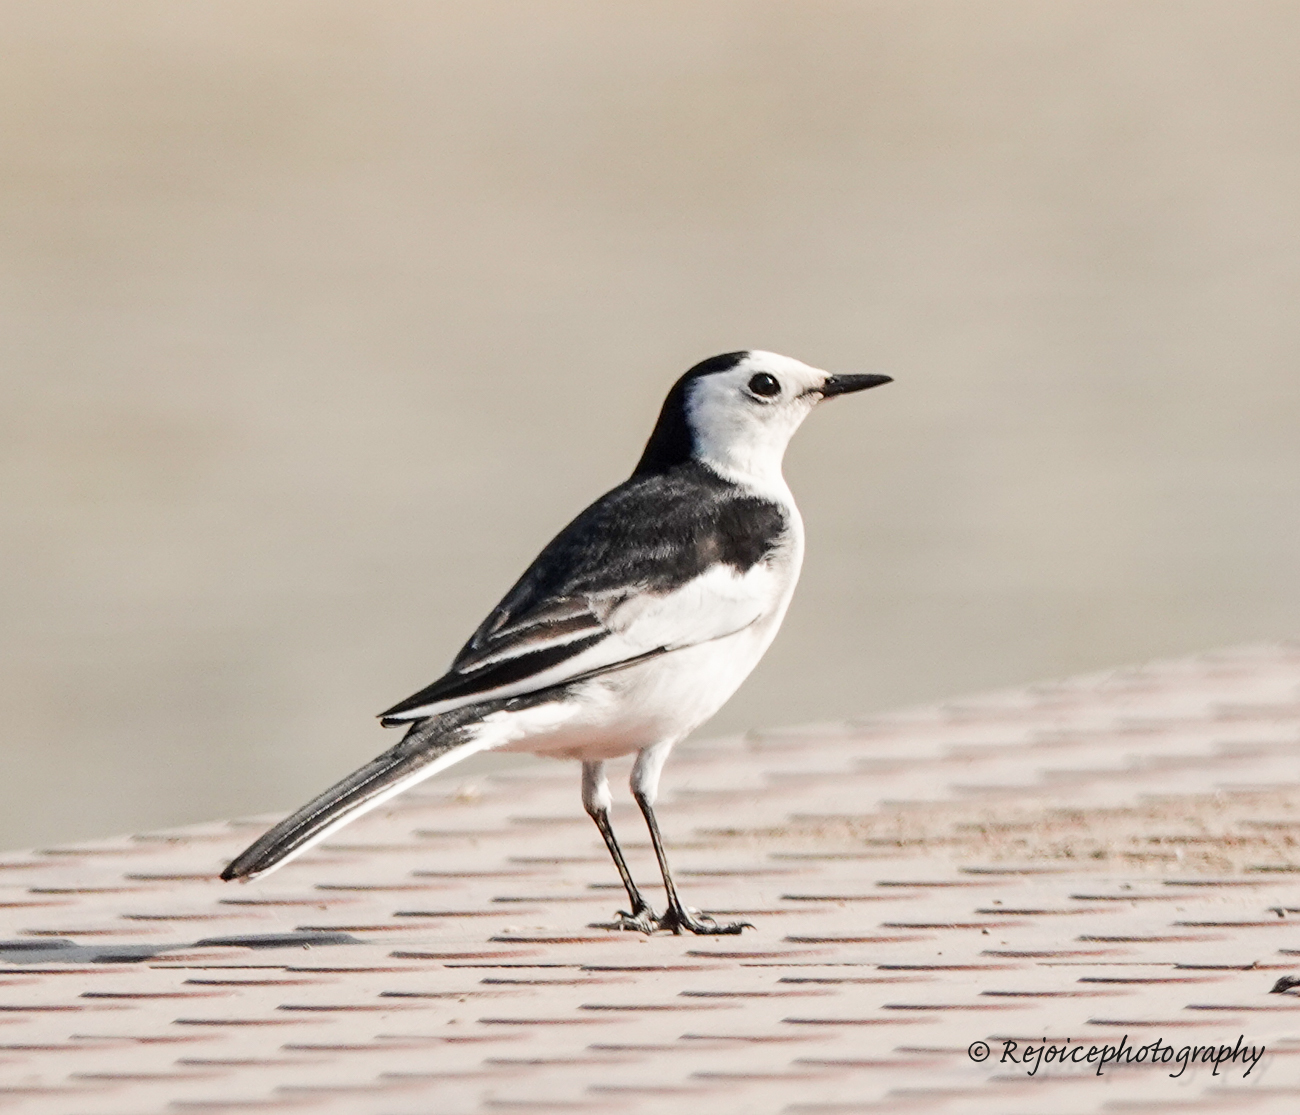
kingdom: Animalia
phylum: Chordata
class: Aves
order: Passeriformes
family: Motacillidae
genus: Motacilla
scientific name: Motacilla alba
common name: White wagtail
